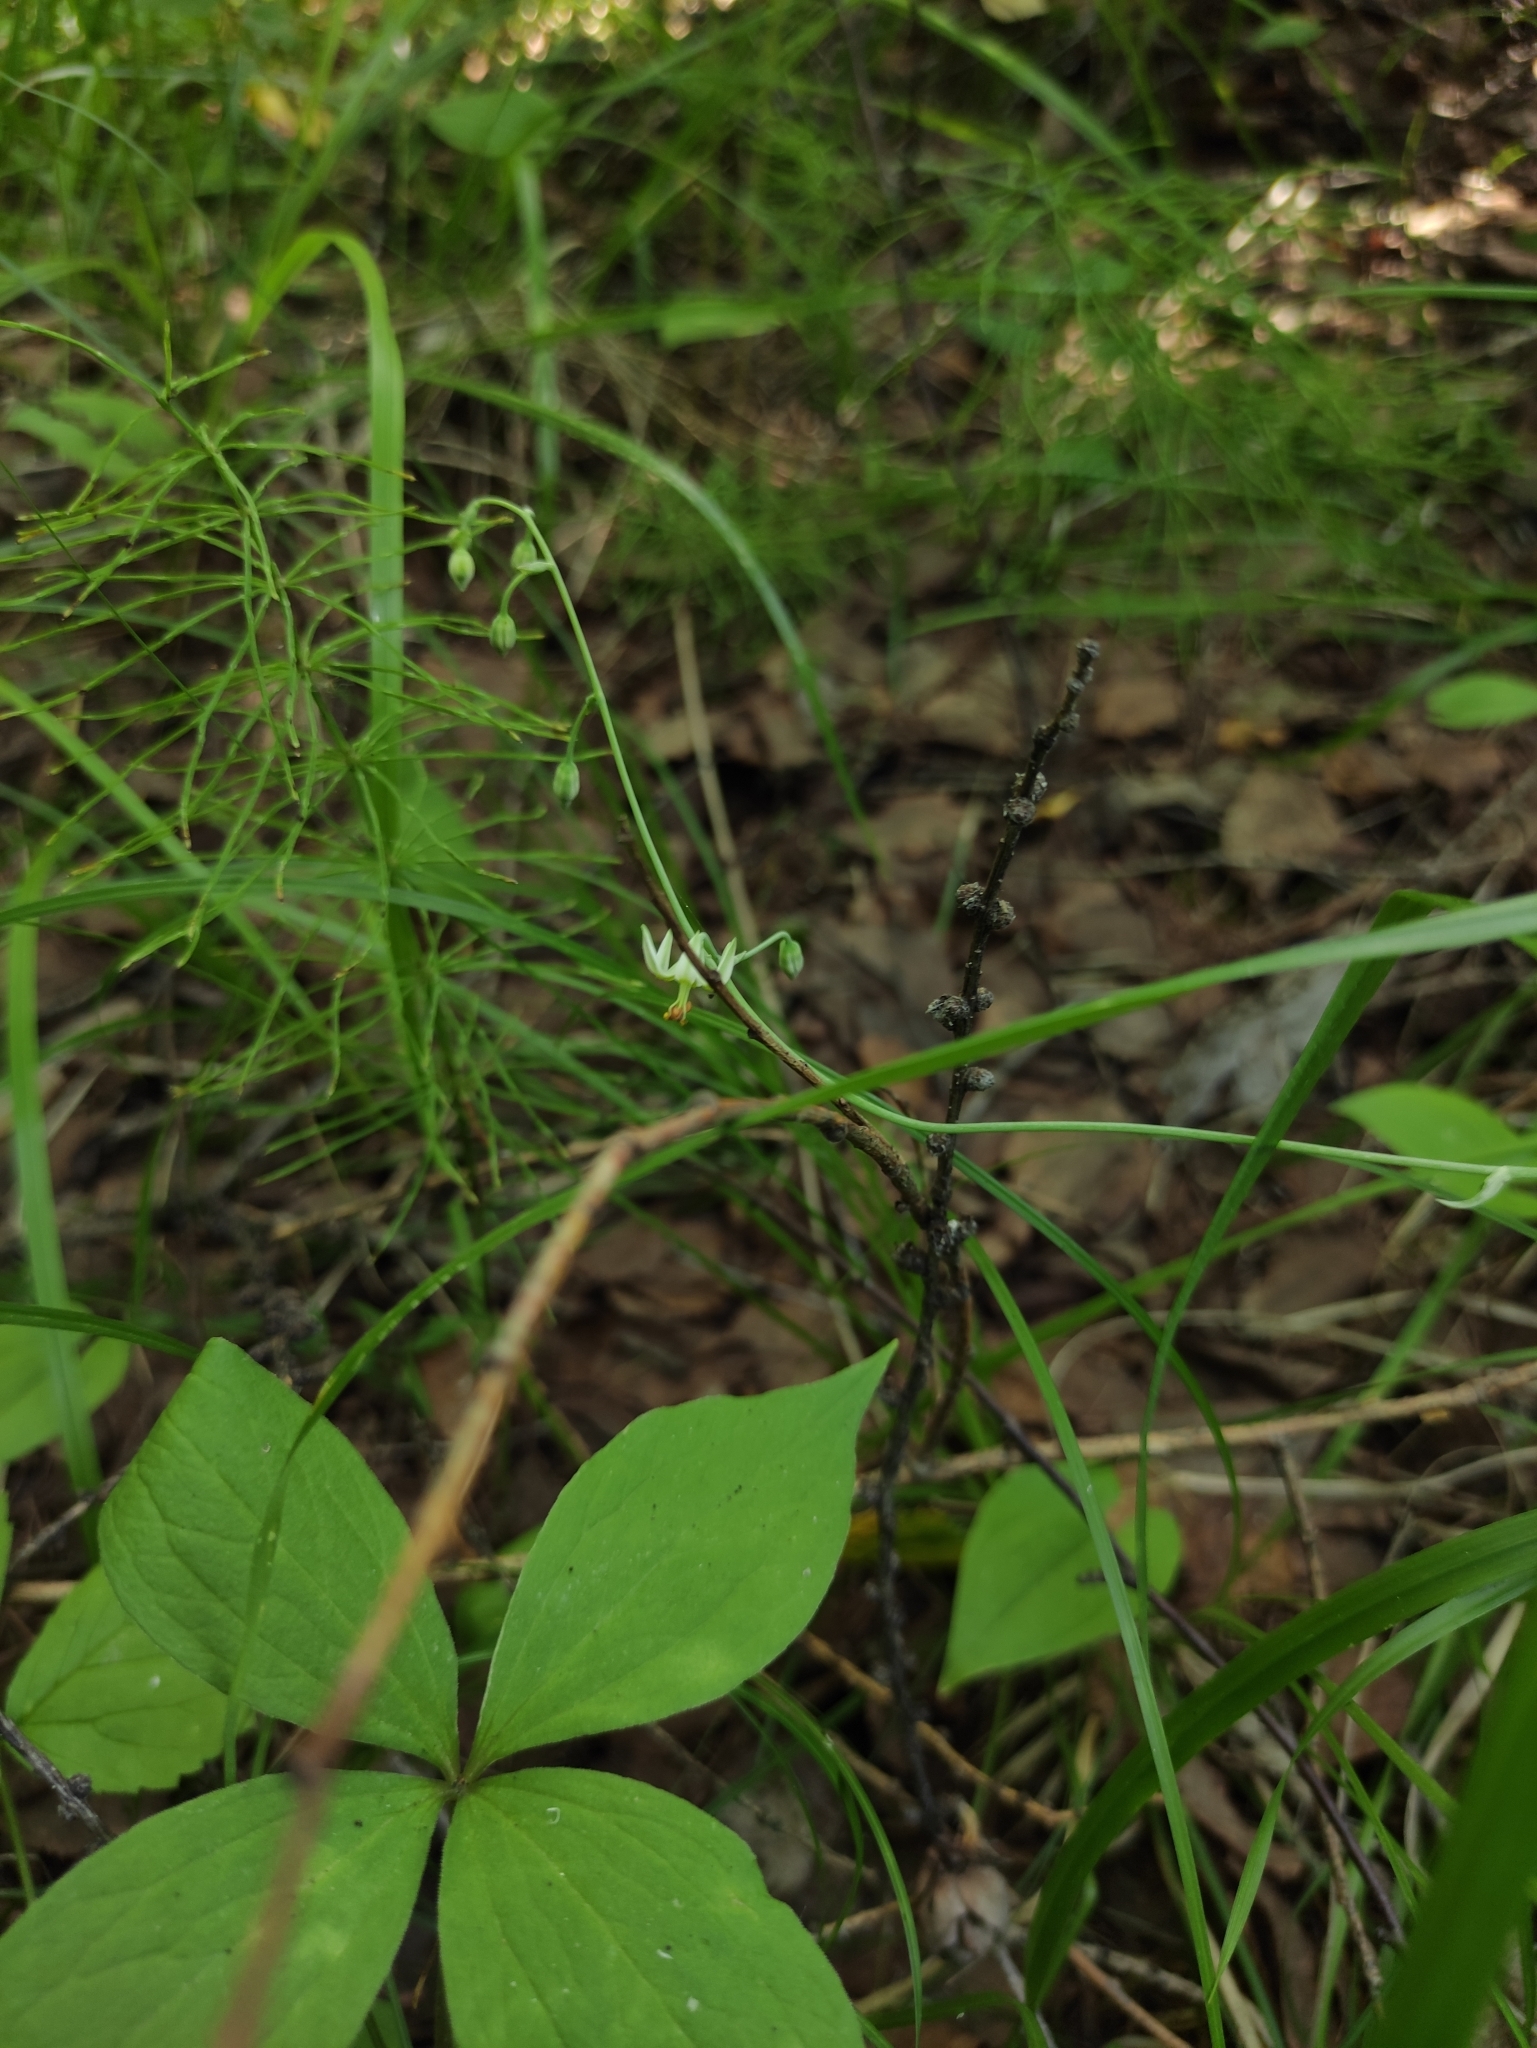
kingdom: Plantae
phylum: Tracheophyta
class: Liliopsida
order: Liliales
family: Melanthiaceae
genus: Anticlea
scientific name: Anticlea sibirica
